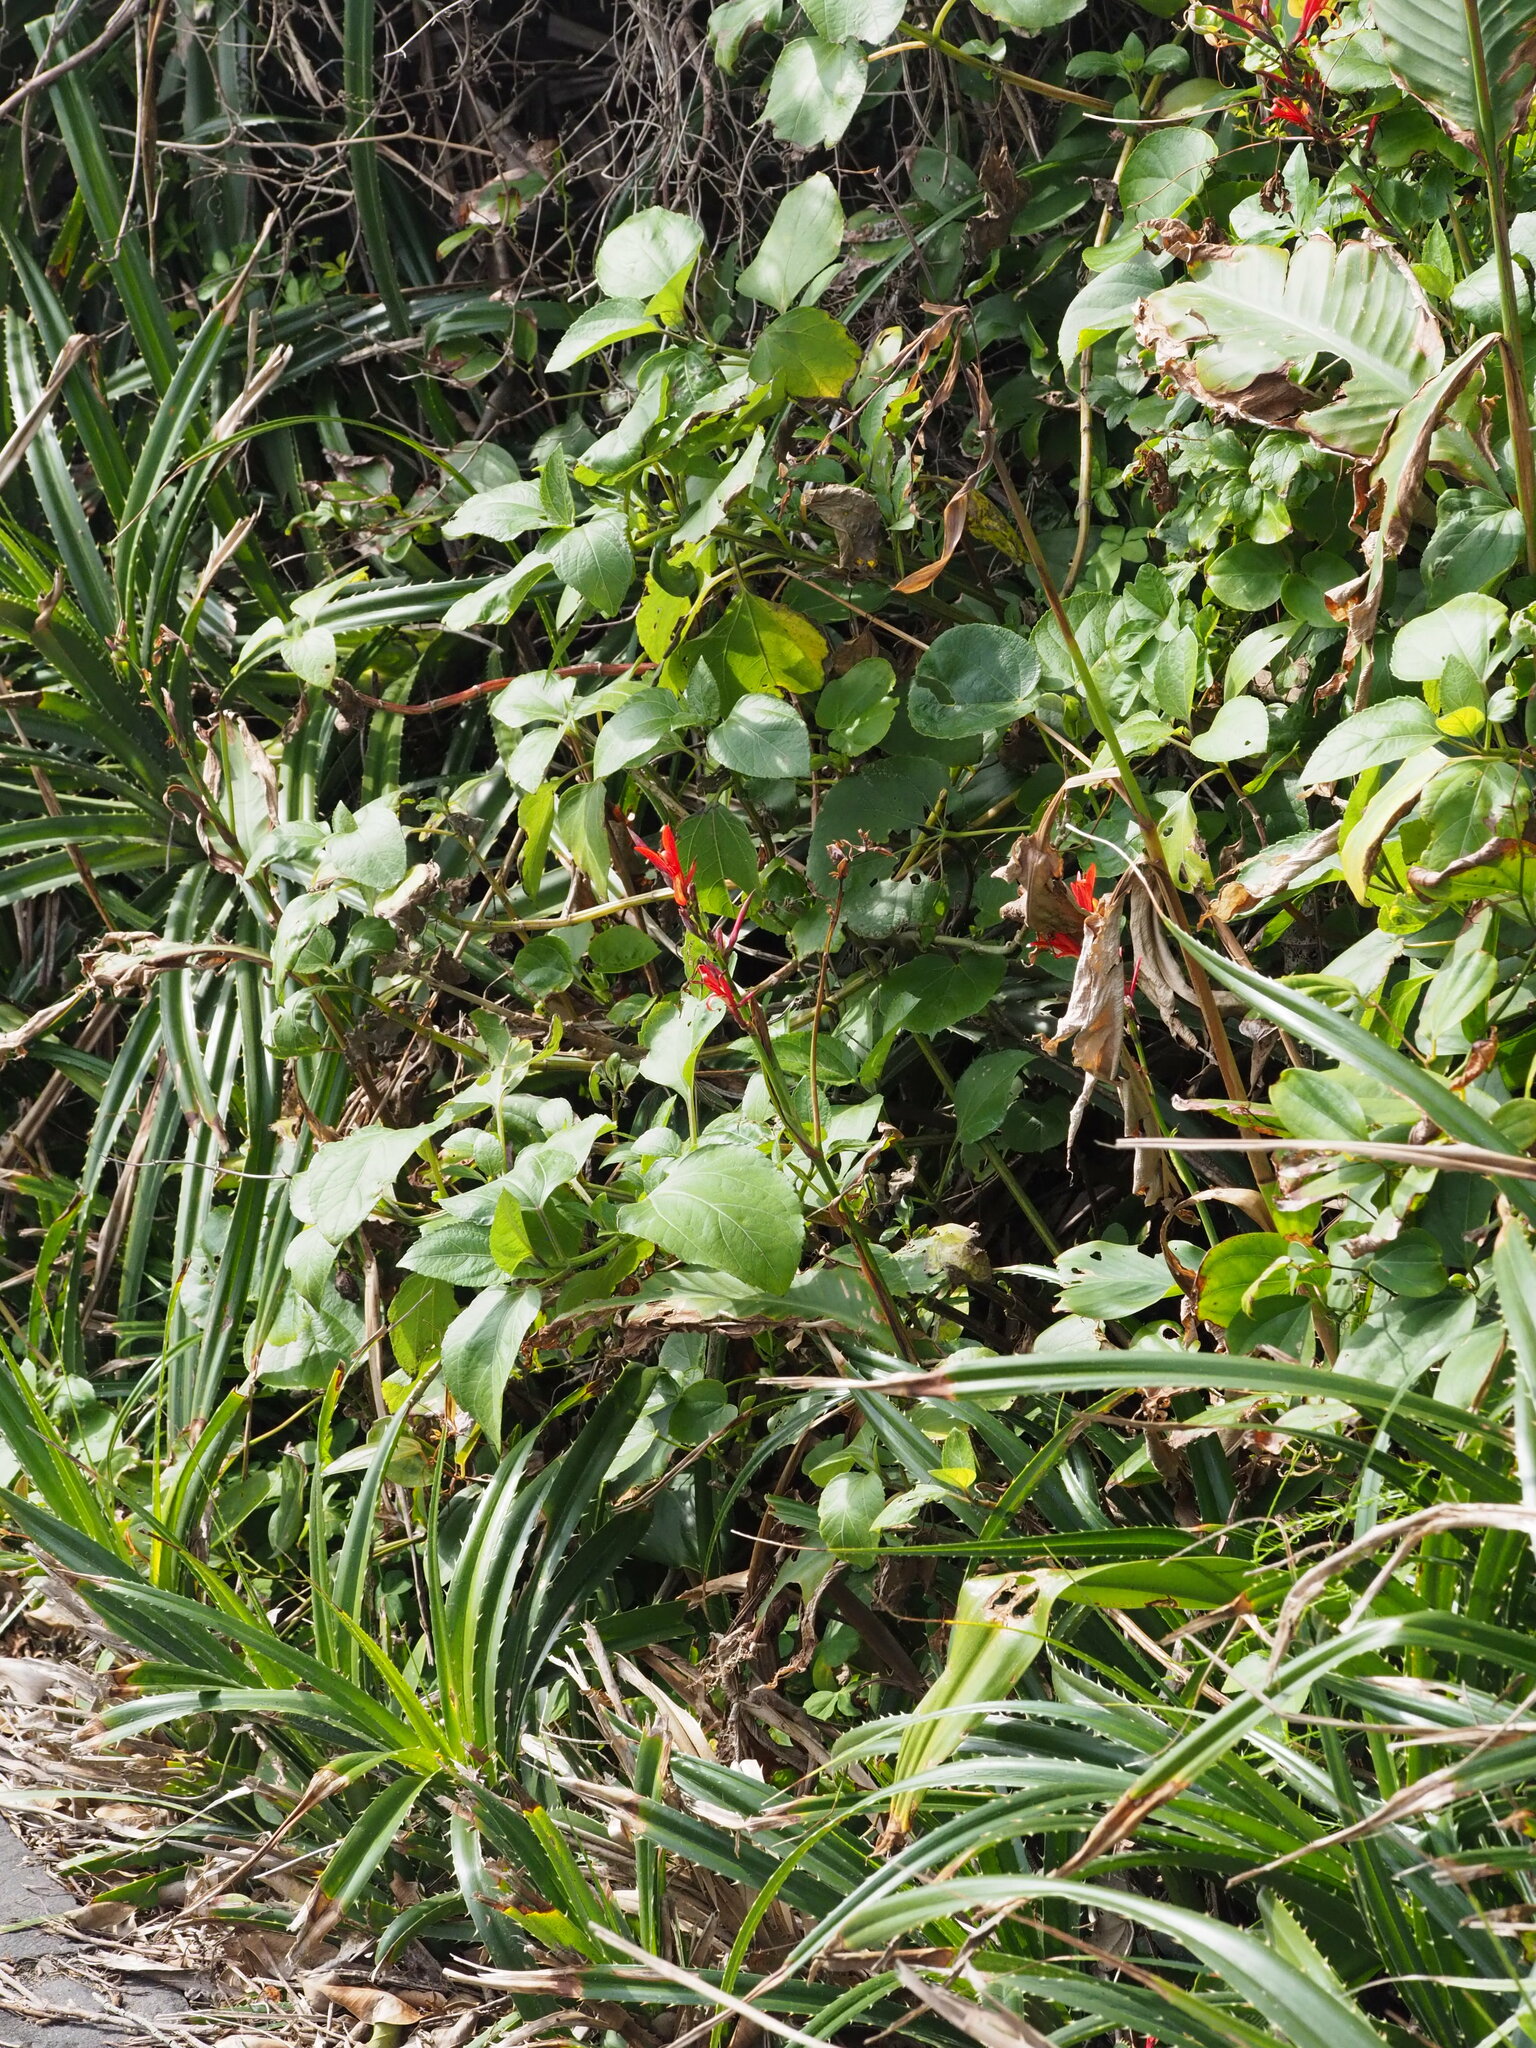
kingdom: Plantae
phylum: Tracheophyta
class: Liliopsida
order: Zingiberales
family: Cannaceae
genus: Canna
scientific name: Canna indica
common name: Indian shot
